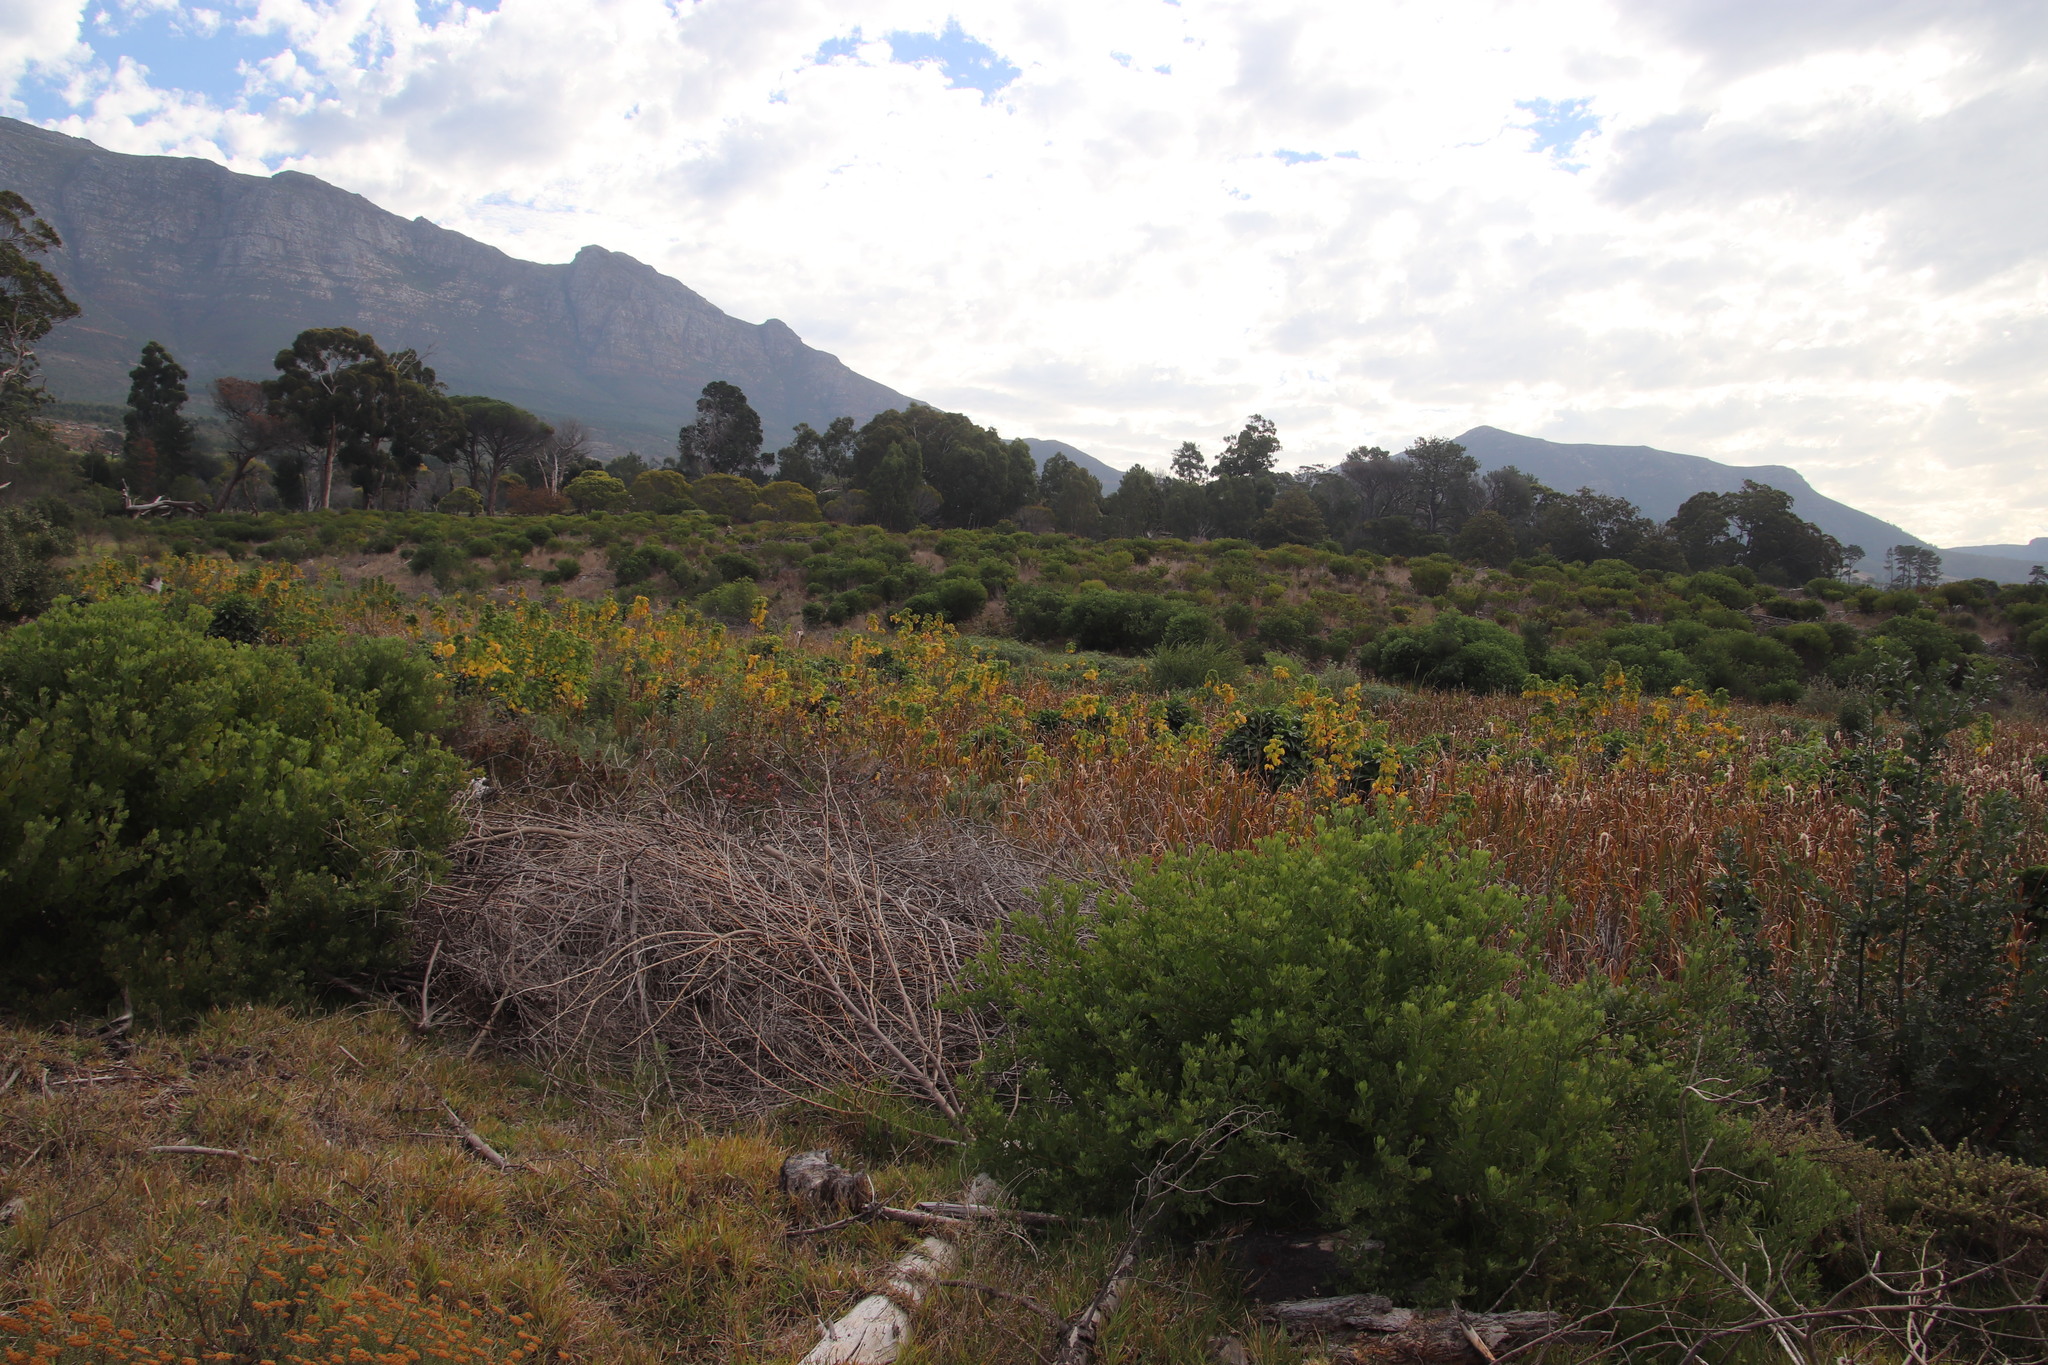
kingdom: Plantae
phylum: Tracheophyta
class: Magnoliopsida
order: Sapindales
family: Sapindaceae
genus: Acer
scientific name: Acer negundo
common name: Ashleaf maple
